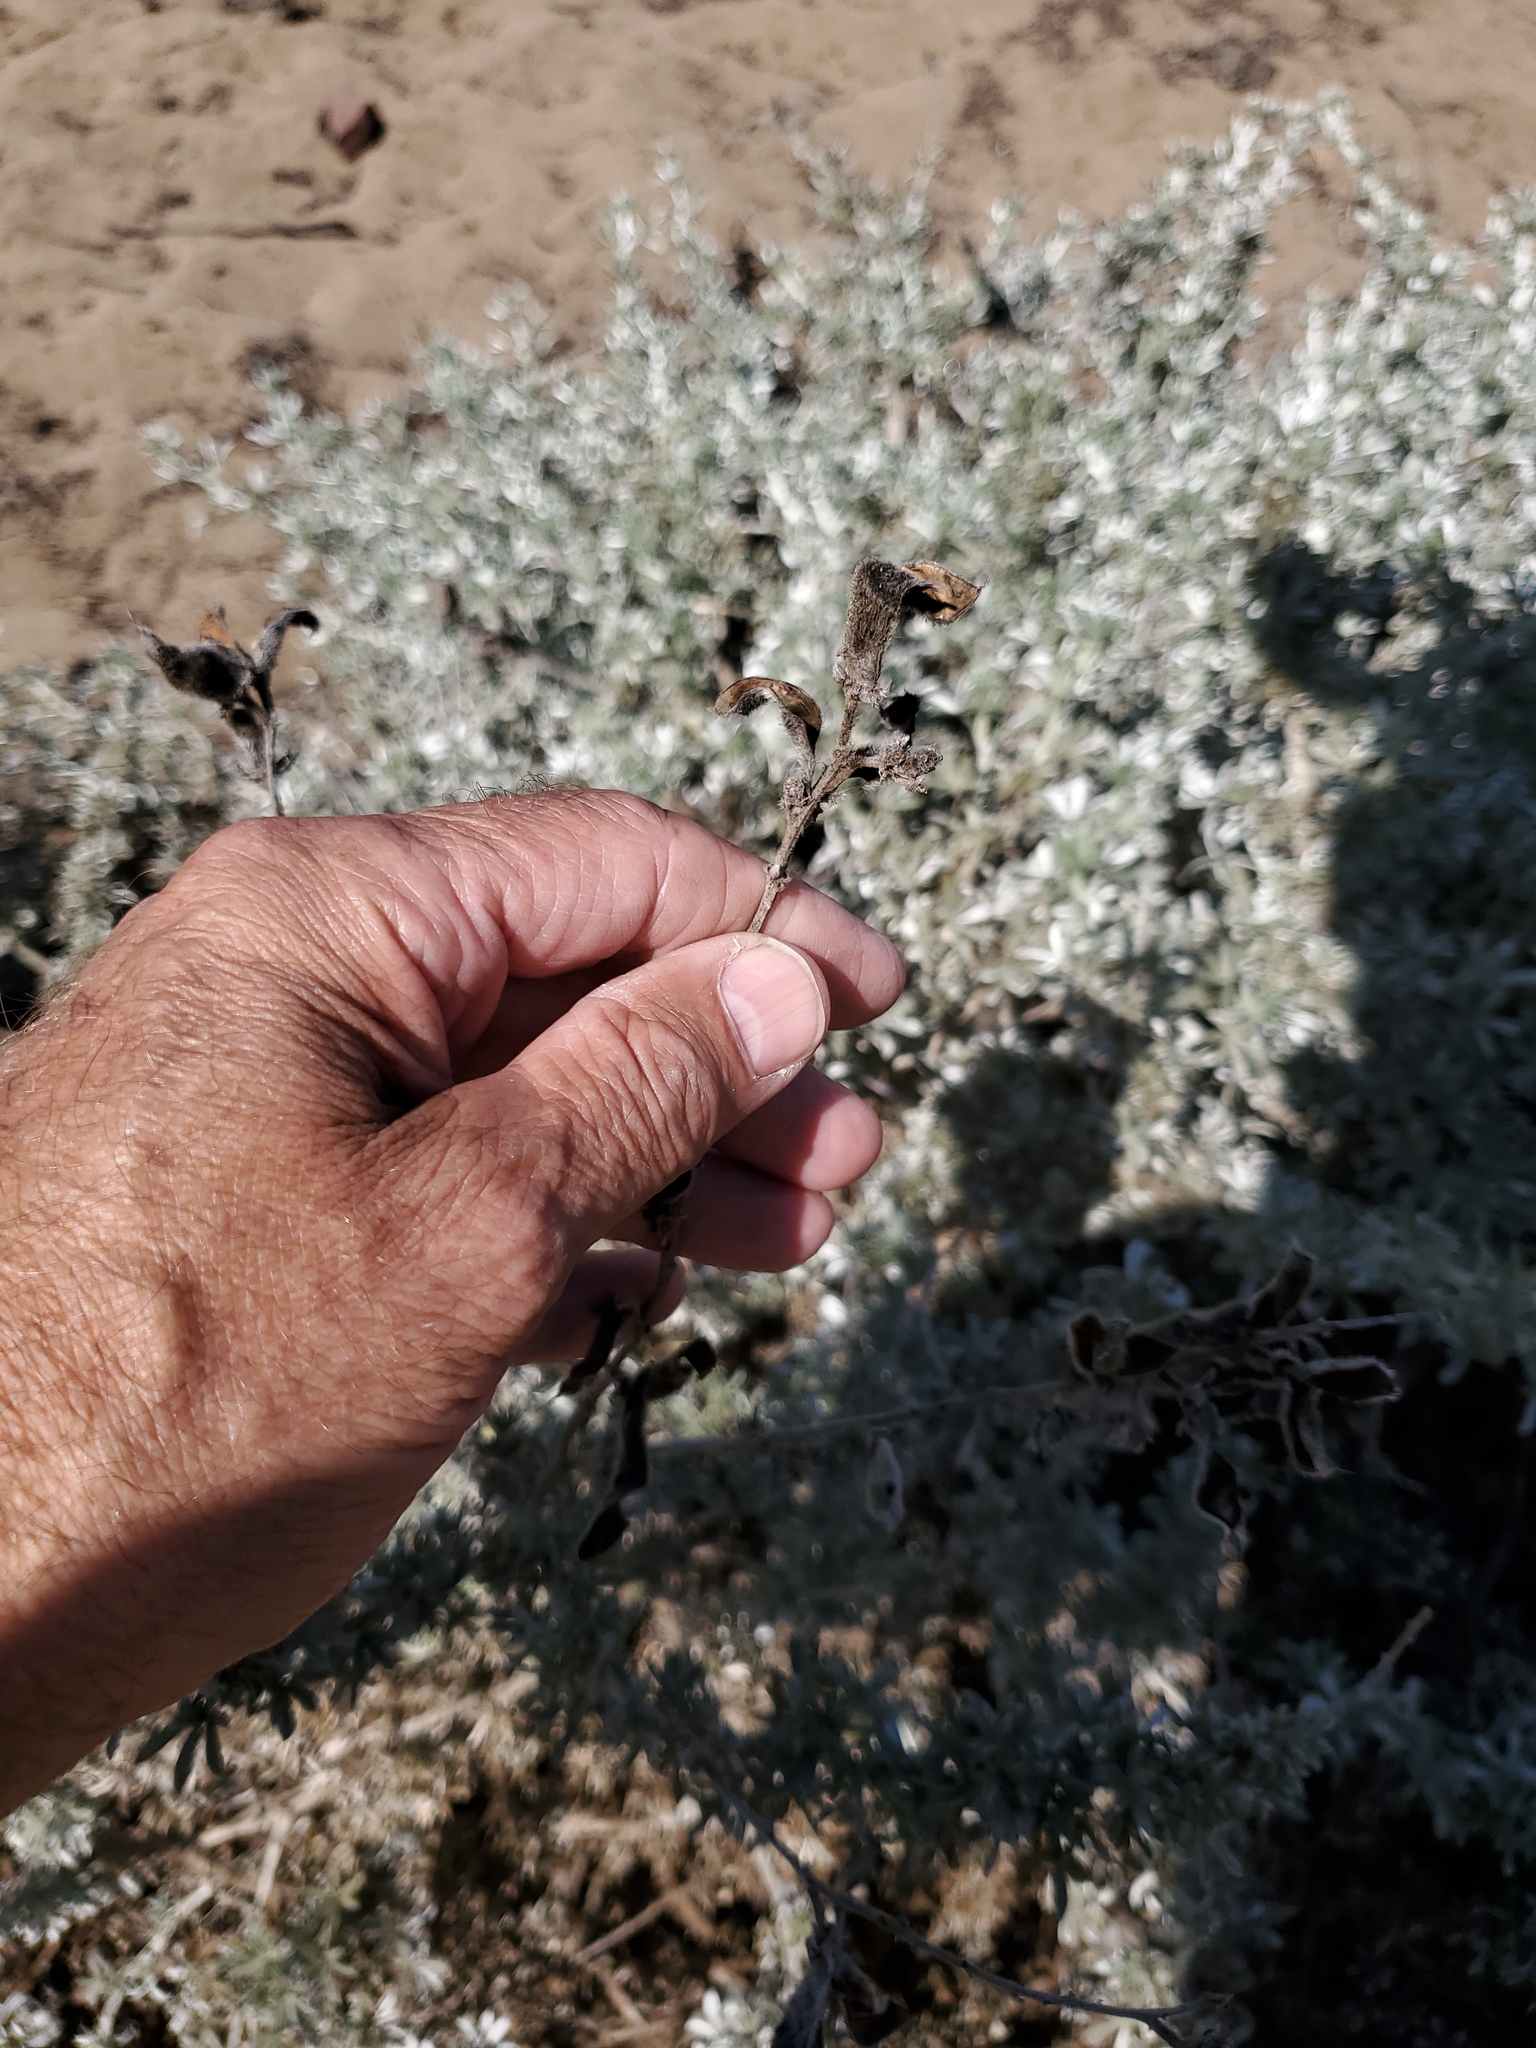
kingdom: Plantae
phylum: Tracheophyta
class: Magnoliopsida
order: Fabales
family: Fabaceae
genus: Lupinus
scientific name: Lupinus chamissonis
